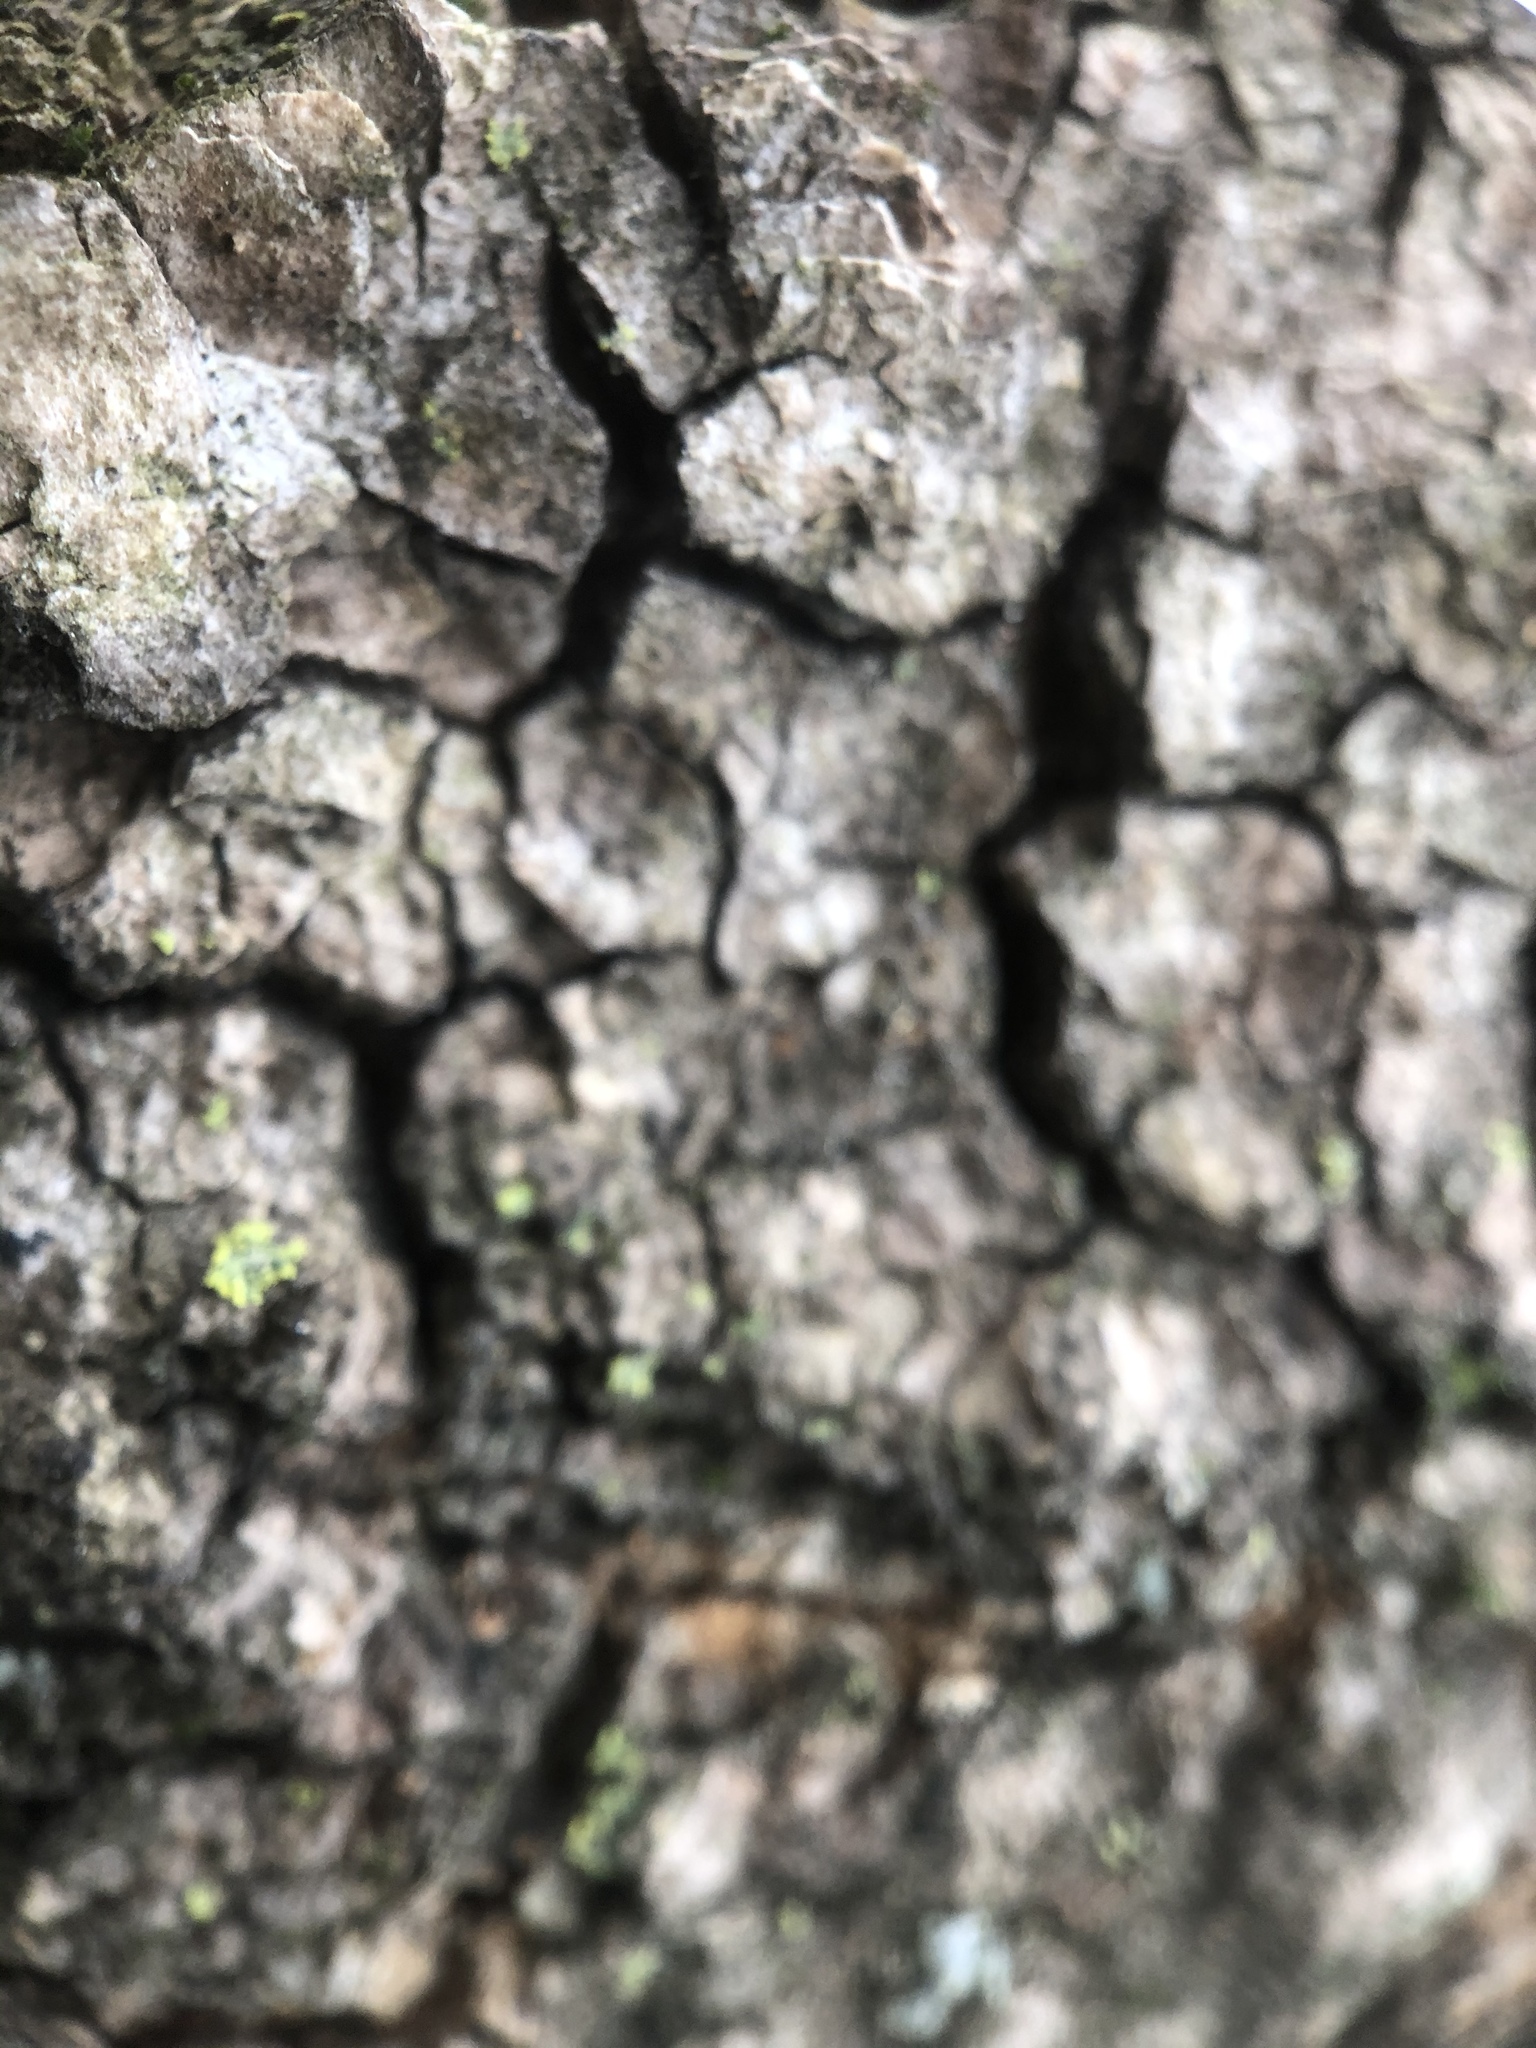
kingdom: Plantae
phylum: Tracheophyta
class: Magnoliopsida
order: Sapindales
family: Sapindaceae
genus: Acer
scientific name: Acer pensylvanicum
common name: Moosewood
